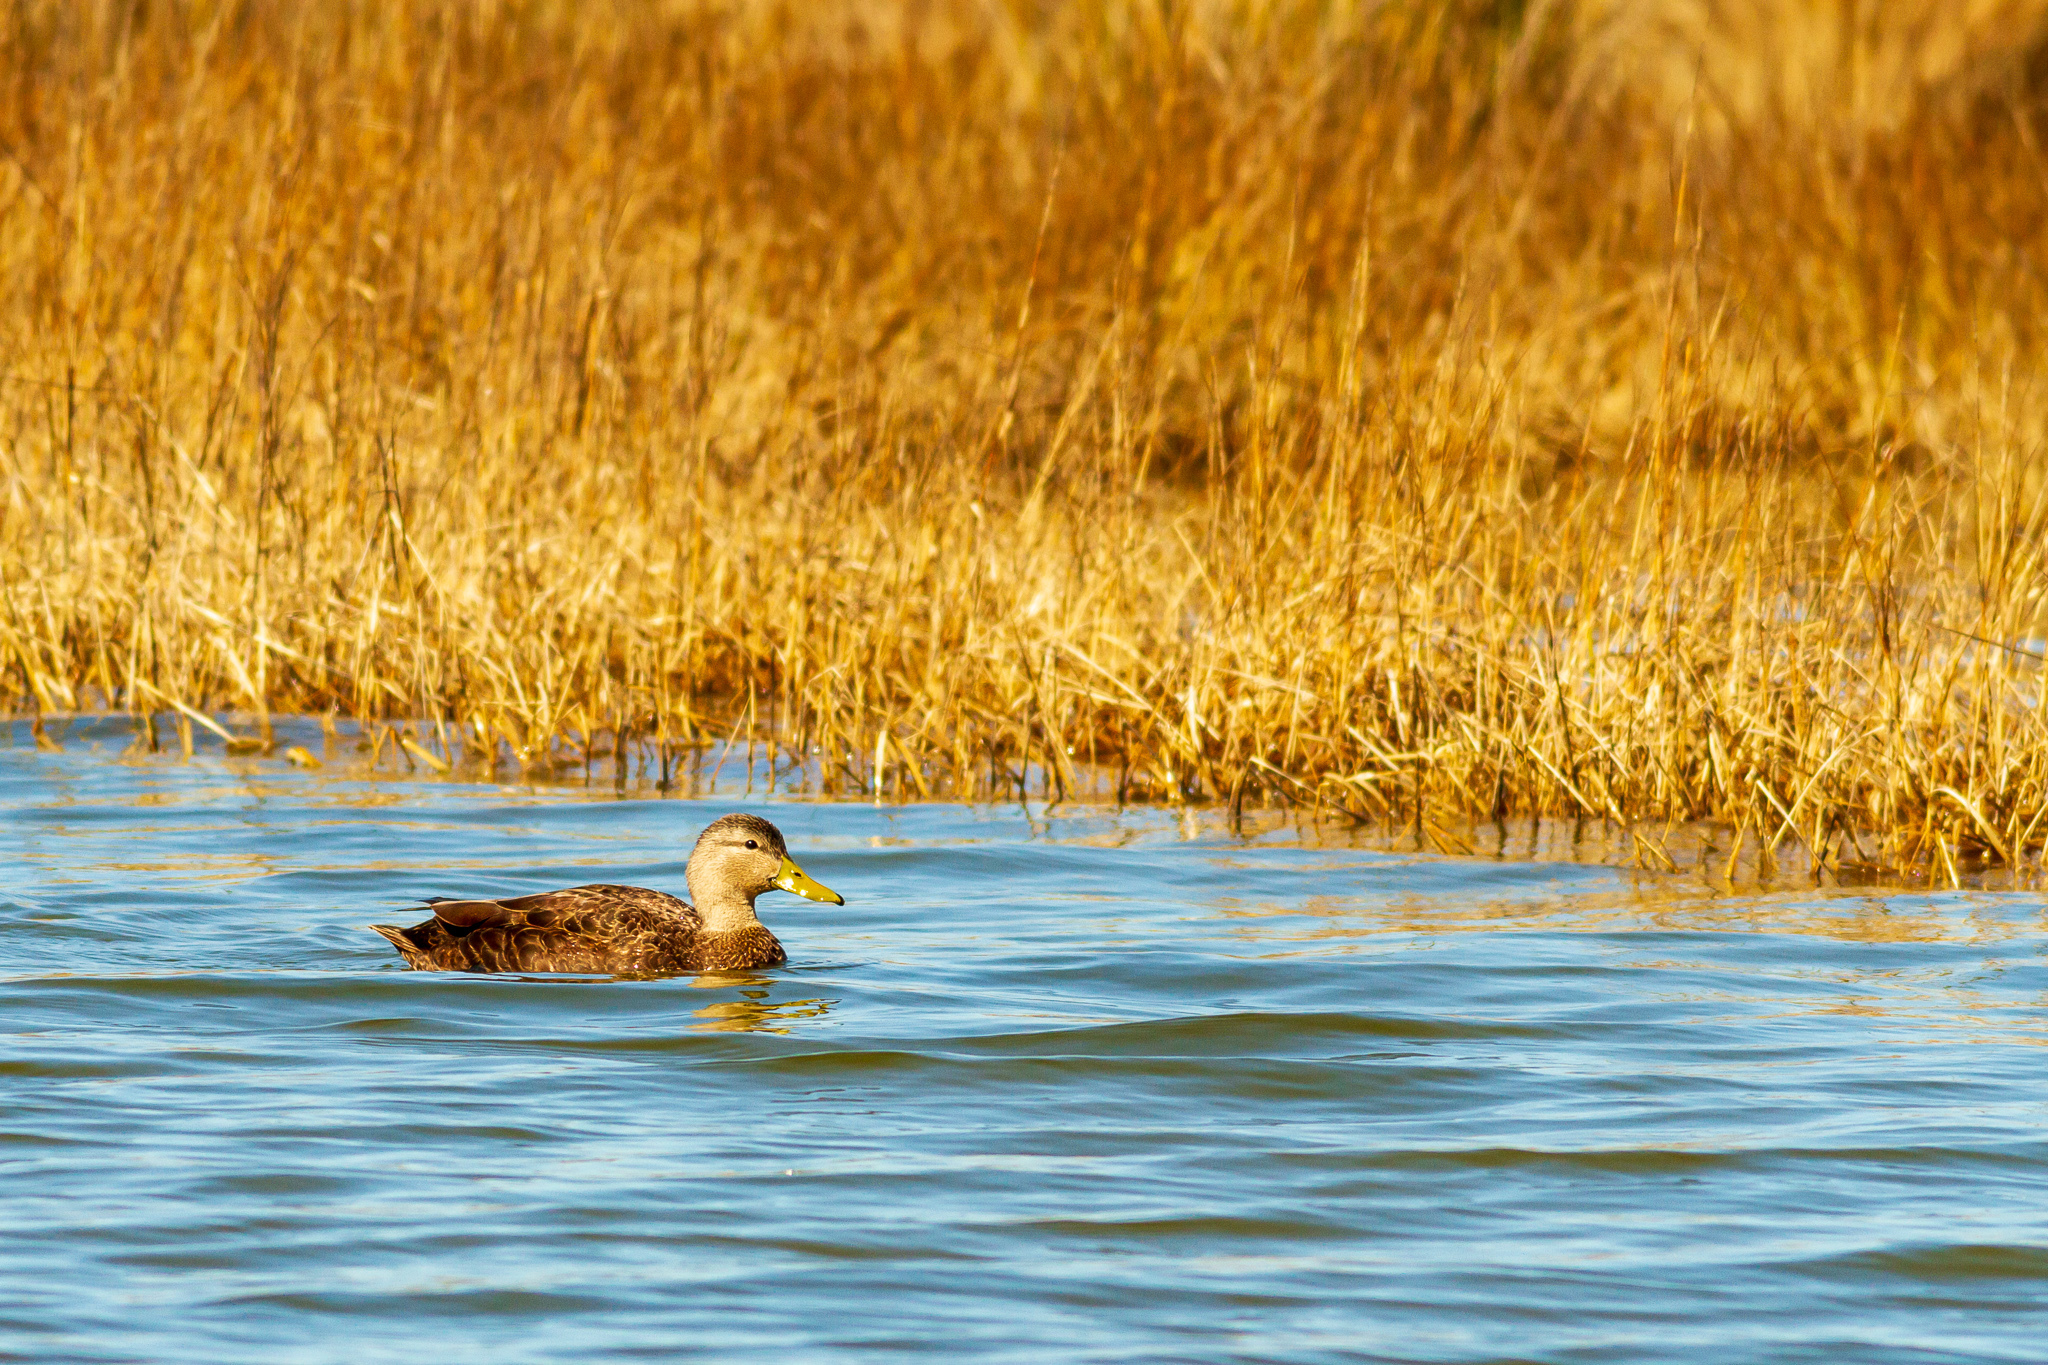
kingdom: Animalia
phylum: Chordata
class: Aves
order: Anseriformes
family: Anatidae
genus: Anas
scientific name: Anas rubripes
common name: American black duck
